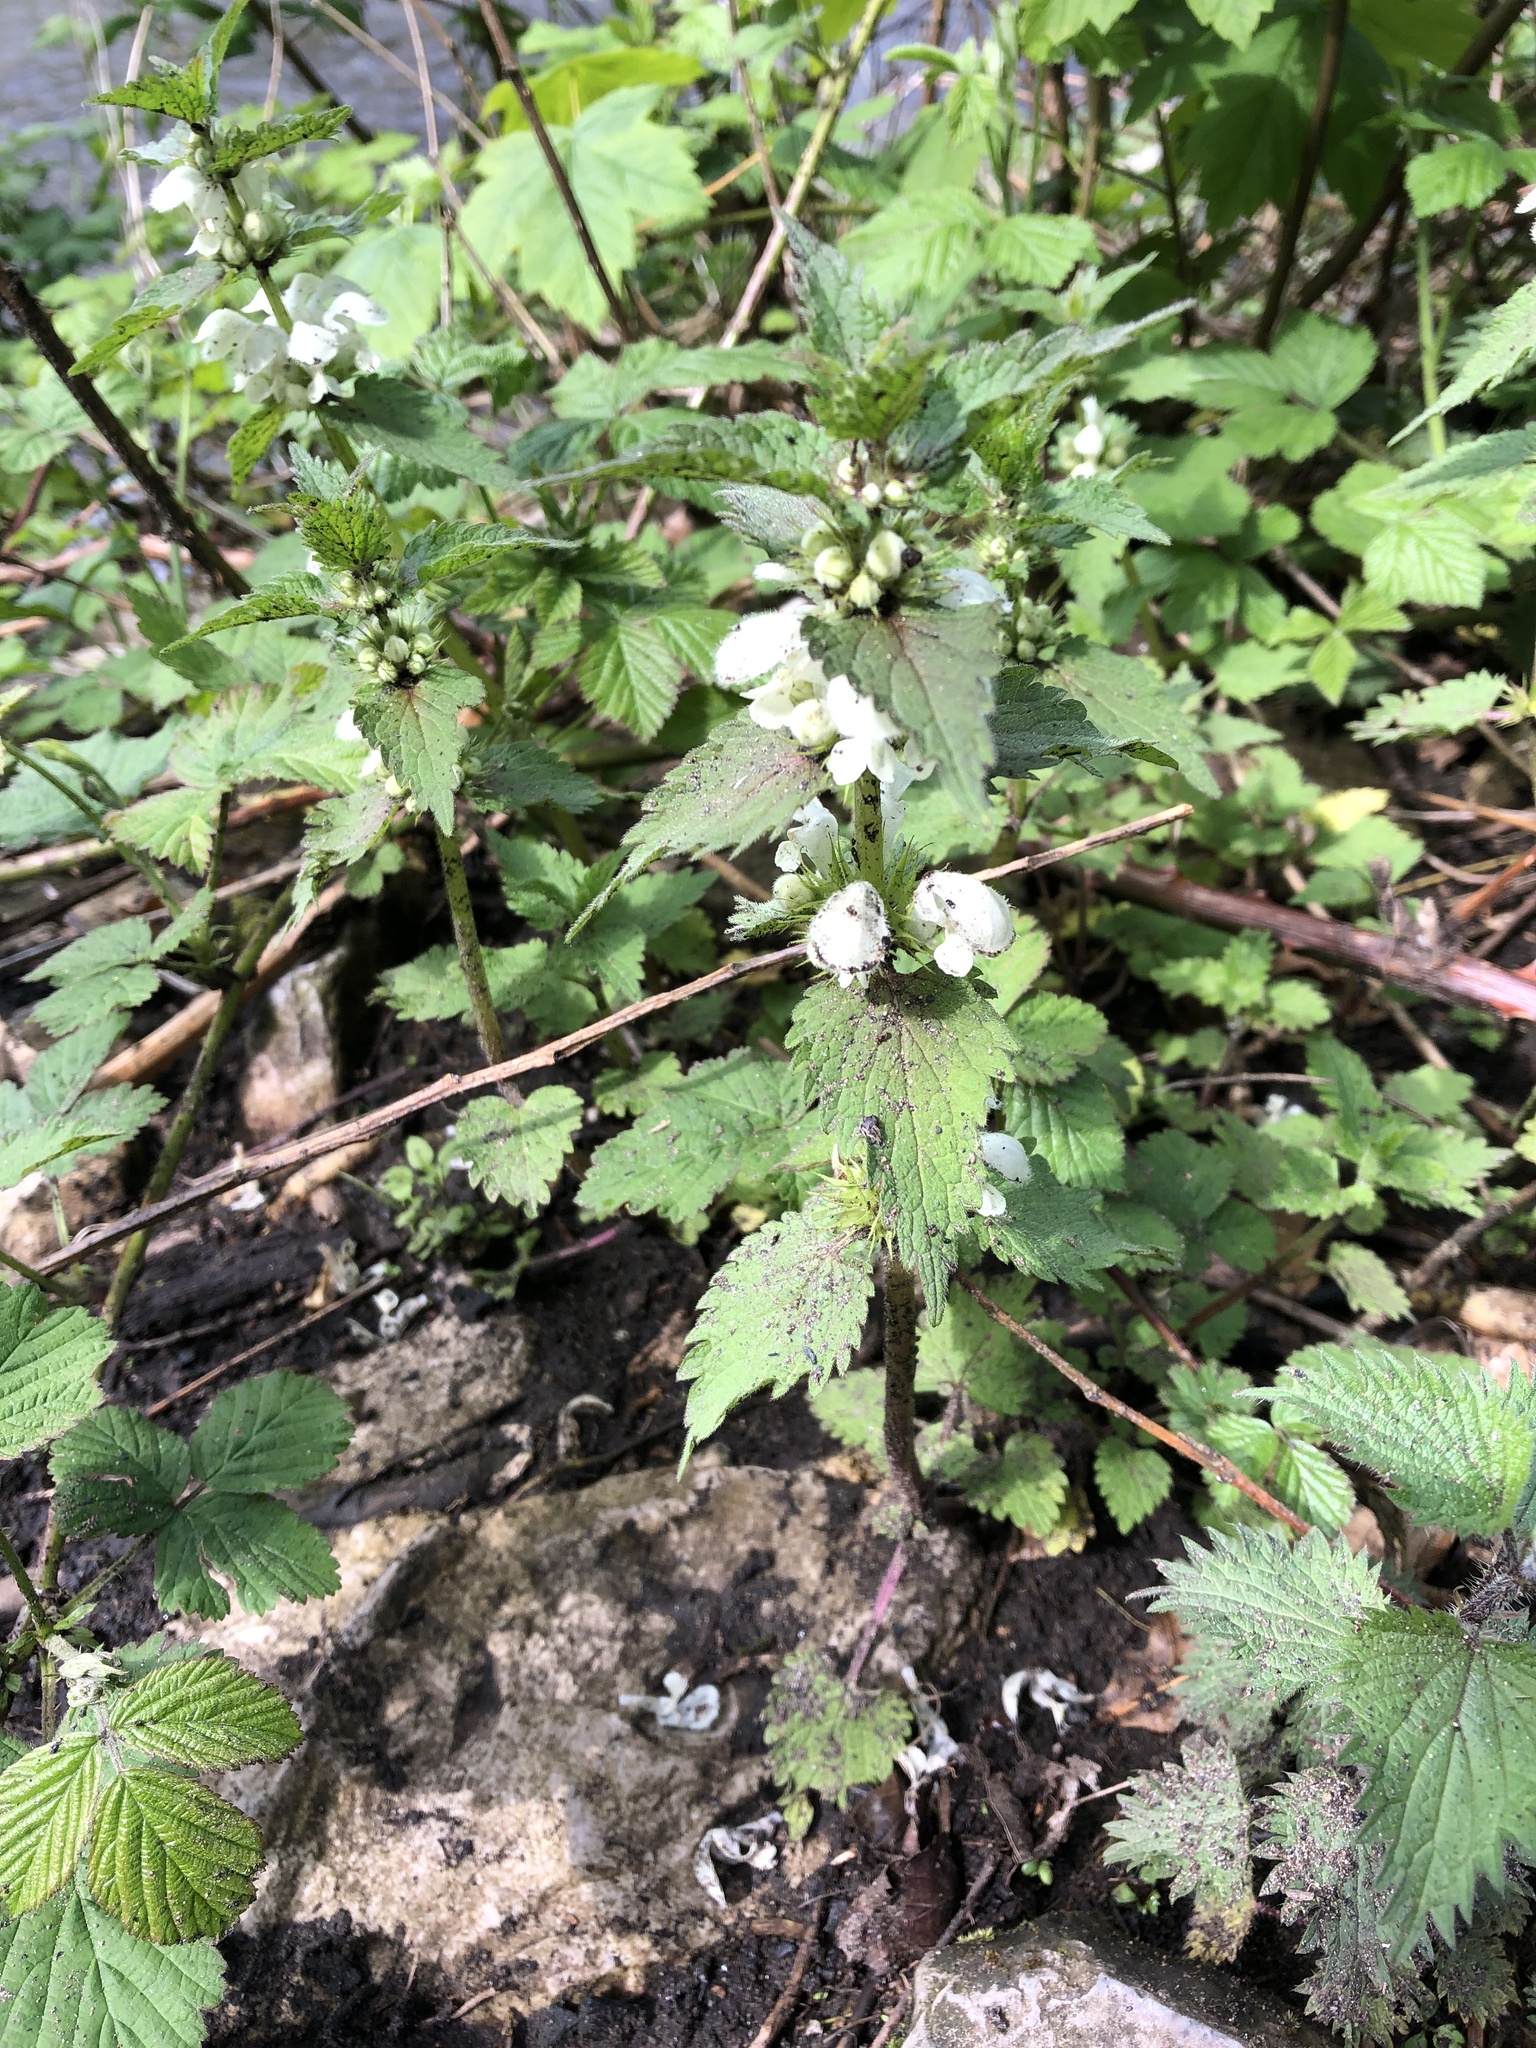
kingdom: Plantae
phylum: Tracheophyta
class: Magnoliopsida
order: Lamiales
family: Lamiaceae
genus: Lamium
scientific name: Lamium album
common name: White dead-nettle
